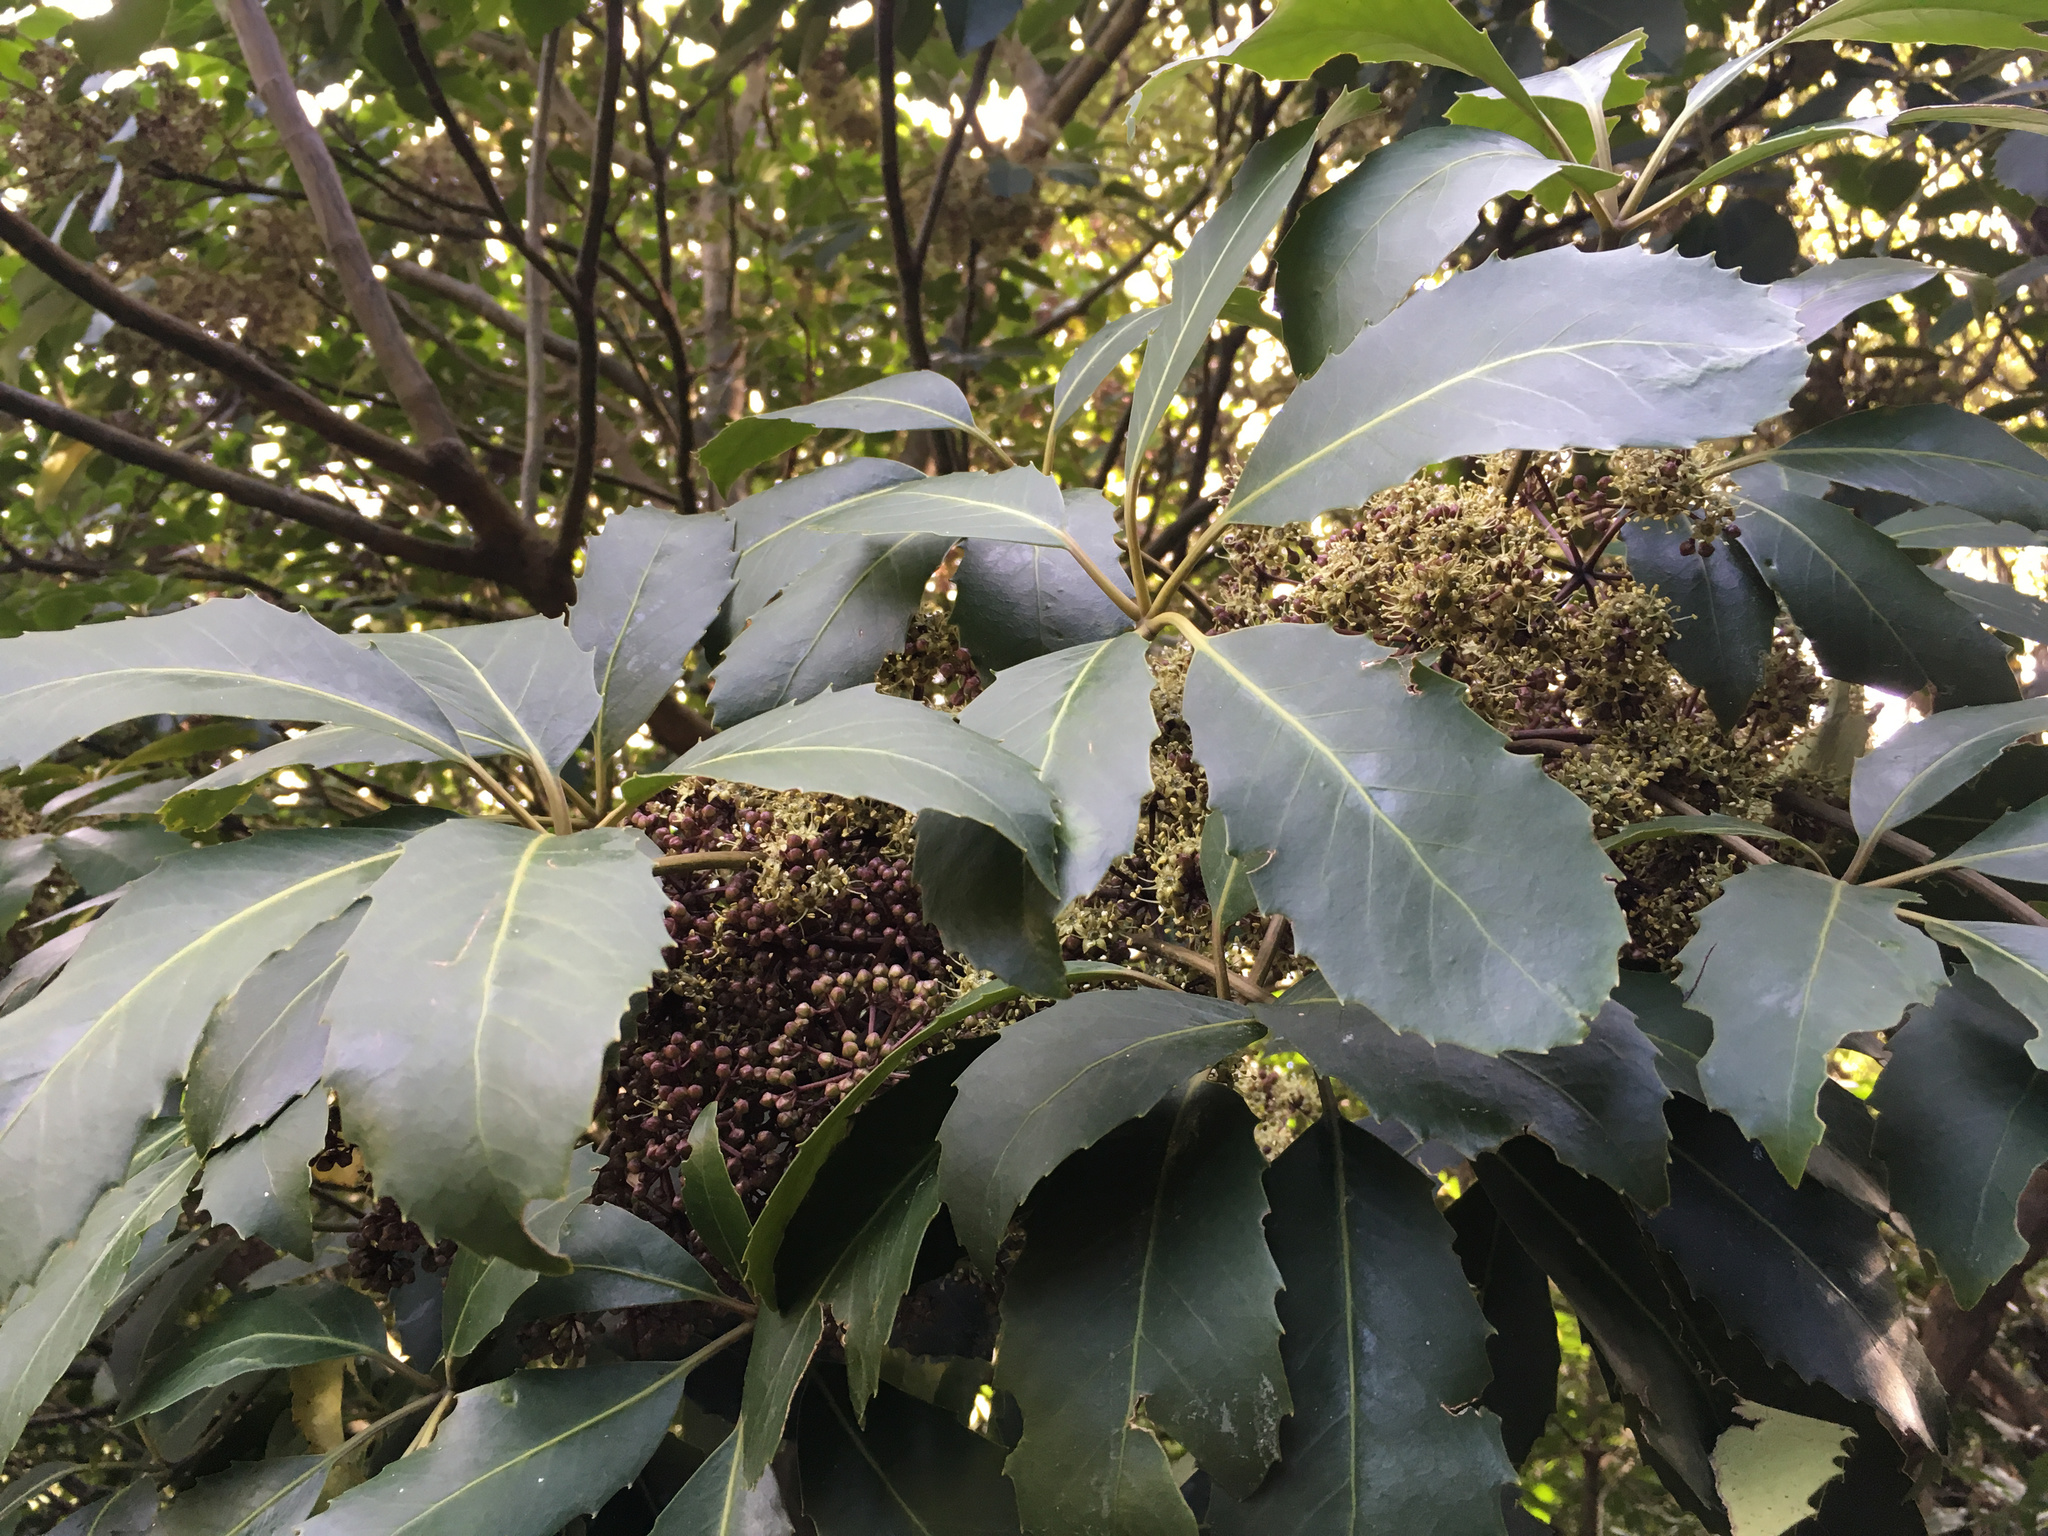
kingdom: Plantae
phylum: Tracheophyta
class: Magnoliopsida
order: Apiales
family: Araliaceae
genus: Neopanax
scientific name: Neopanax arboreus
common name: Five-fingers
